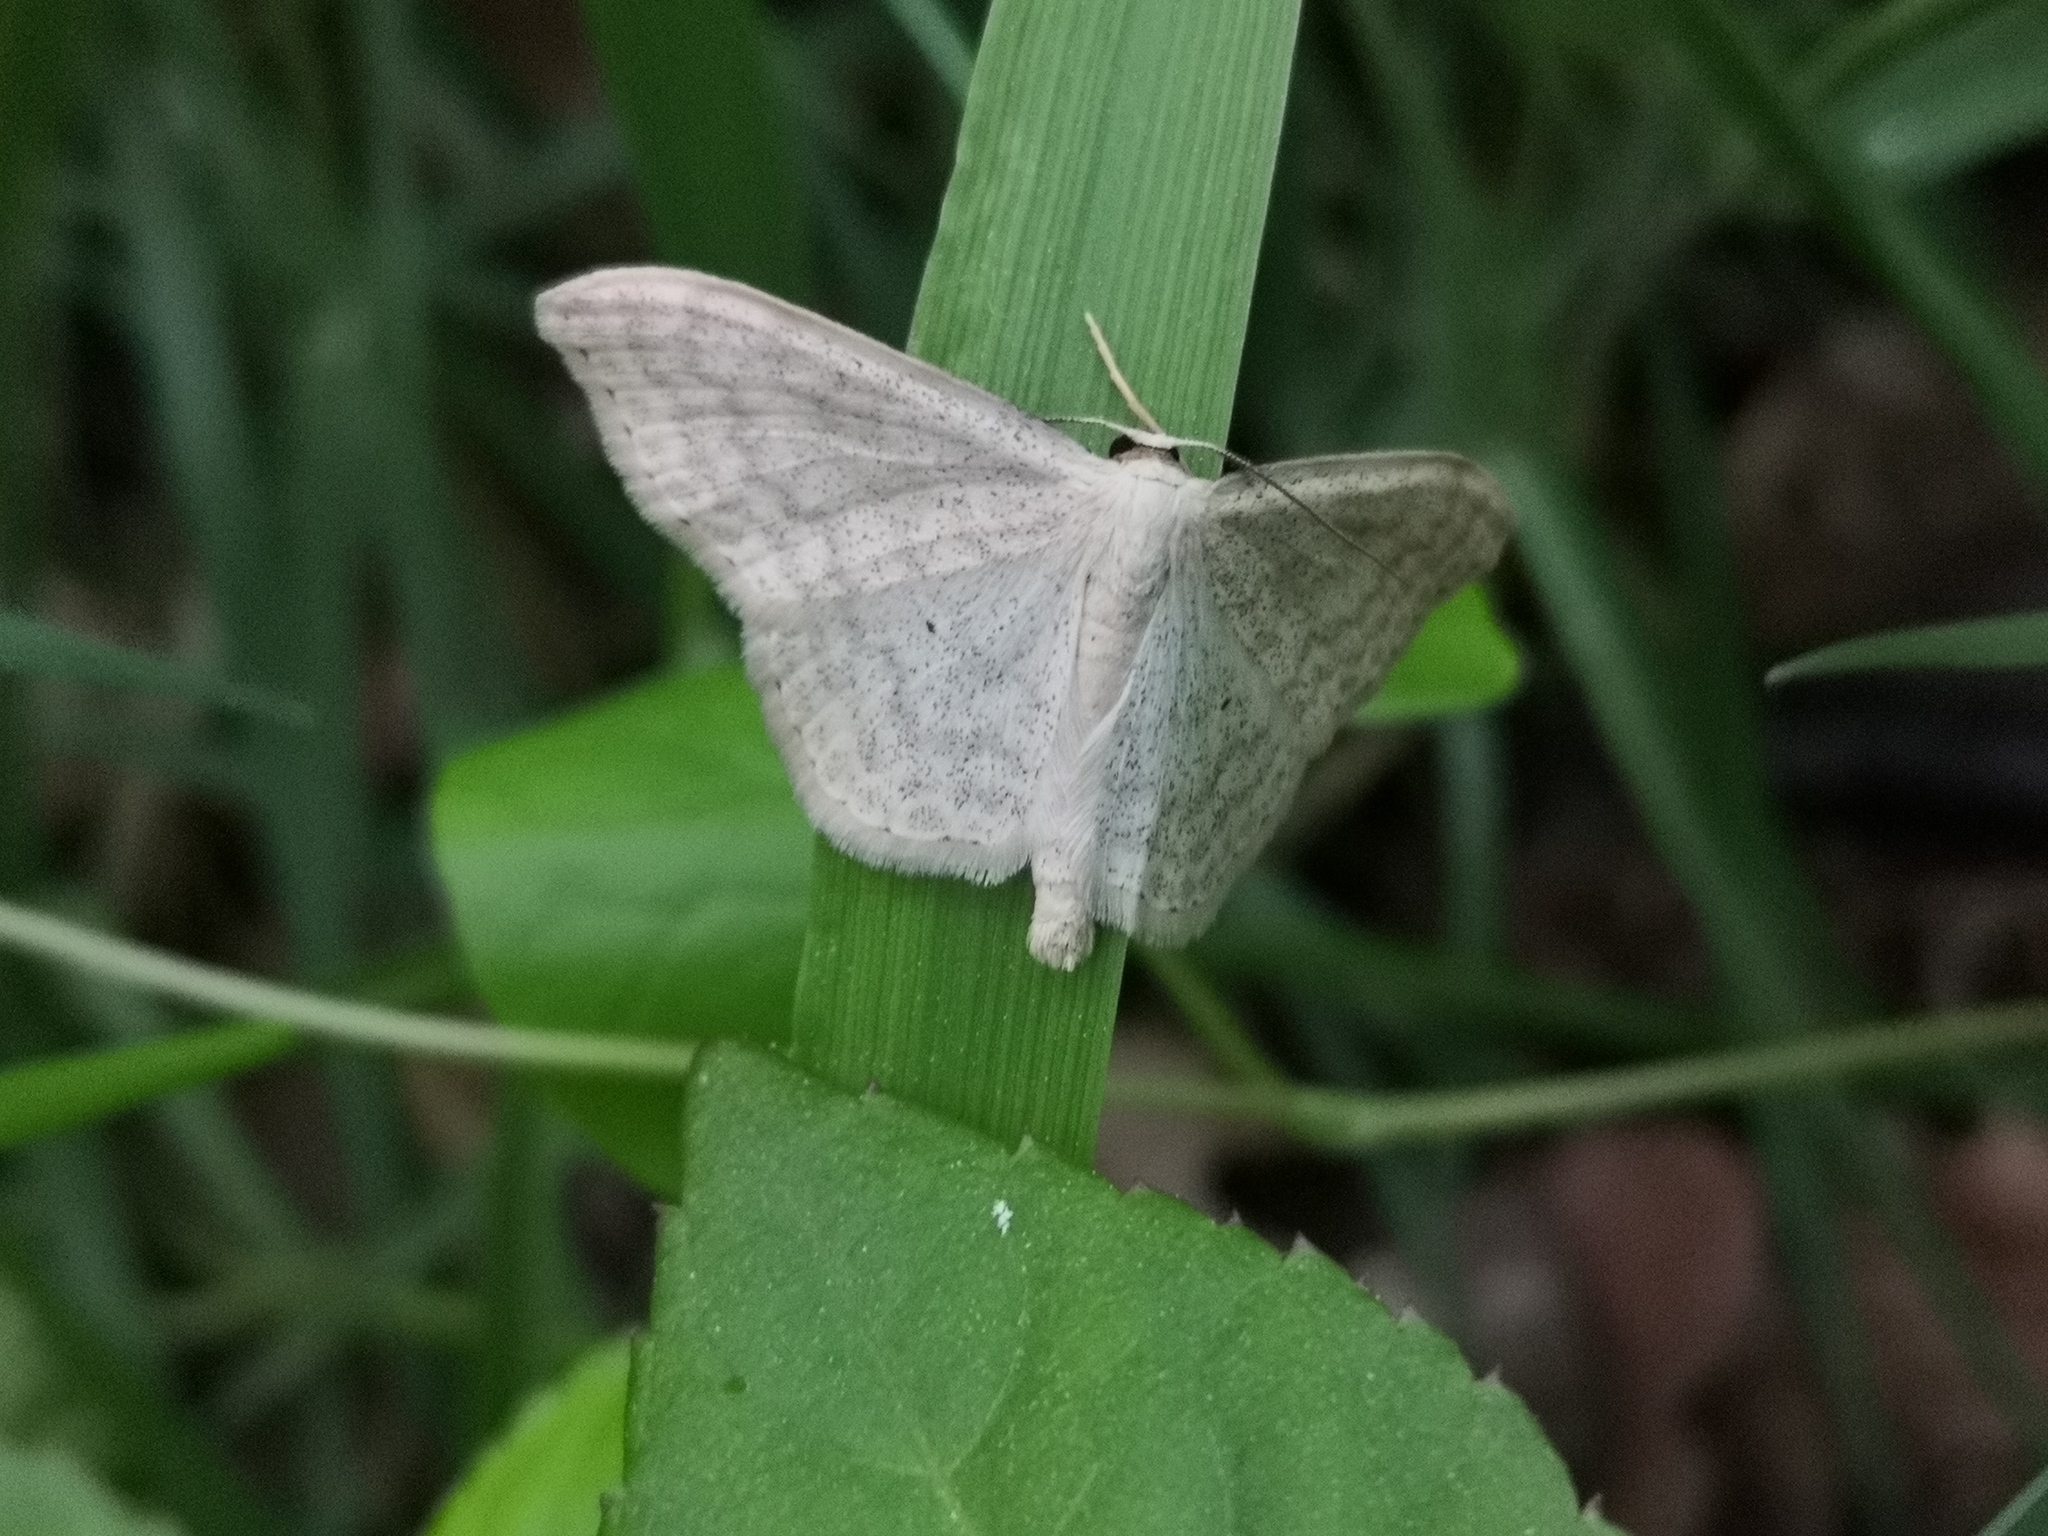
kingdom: Animalia
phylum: Arthropoda
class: Insecta
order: Lepidoptera
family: Geometridae
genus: Scopula
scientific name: Scopula floslactata
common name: Cream wave
